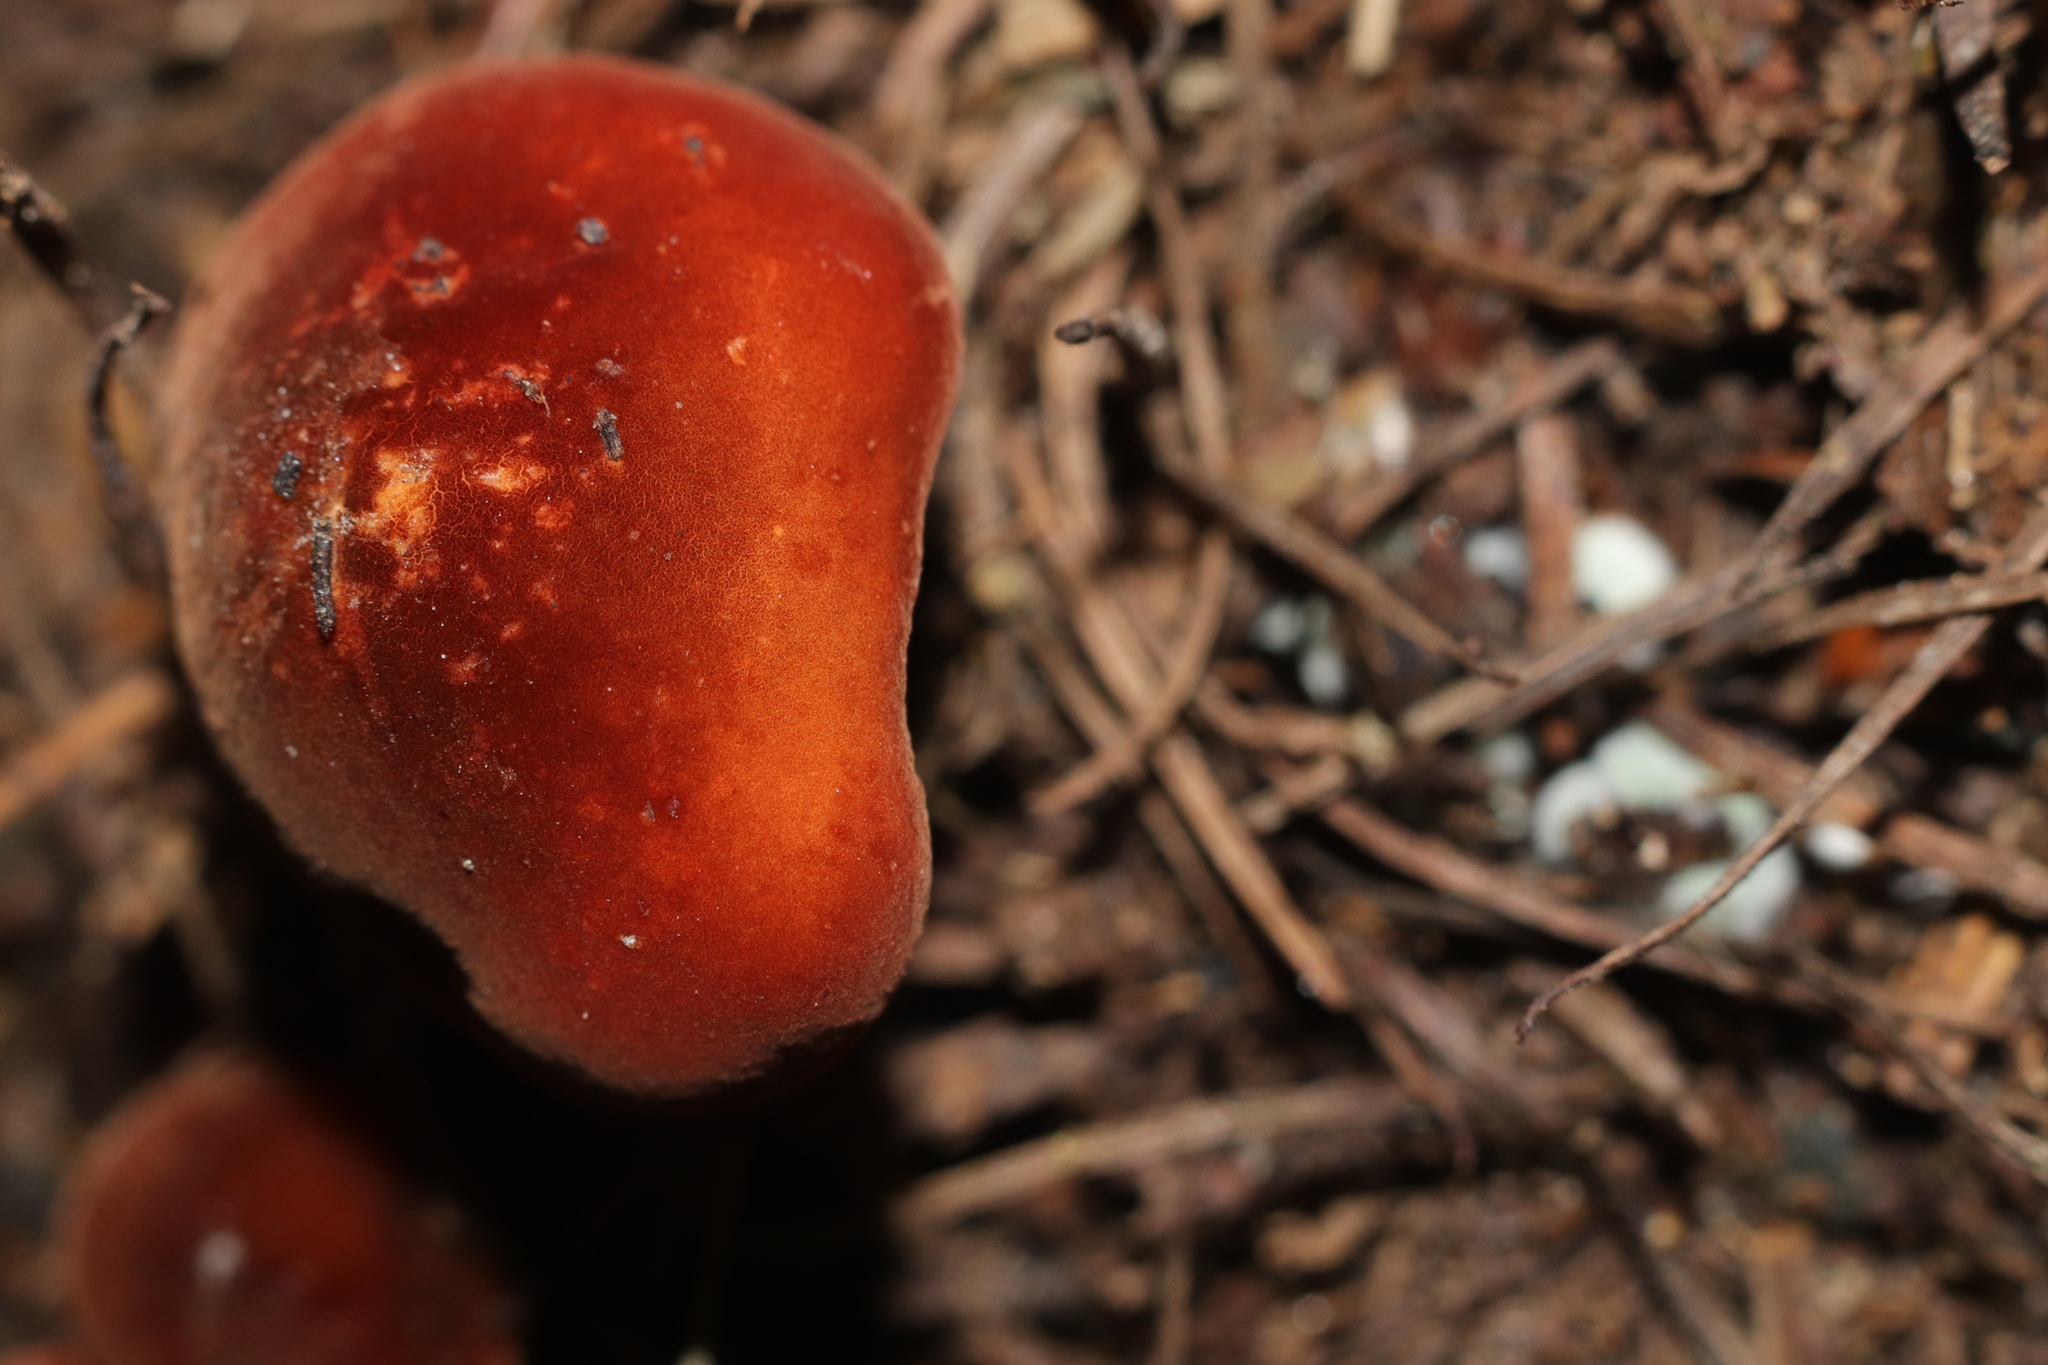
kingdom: Fungi
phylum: Basidiomycota
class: Agaricomycetes
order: Agaricales
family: Marasmiaceae
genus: Marasmius
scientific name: Marasmius elegans
